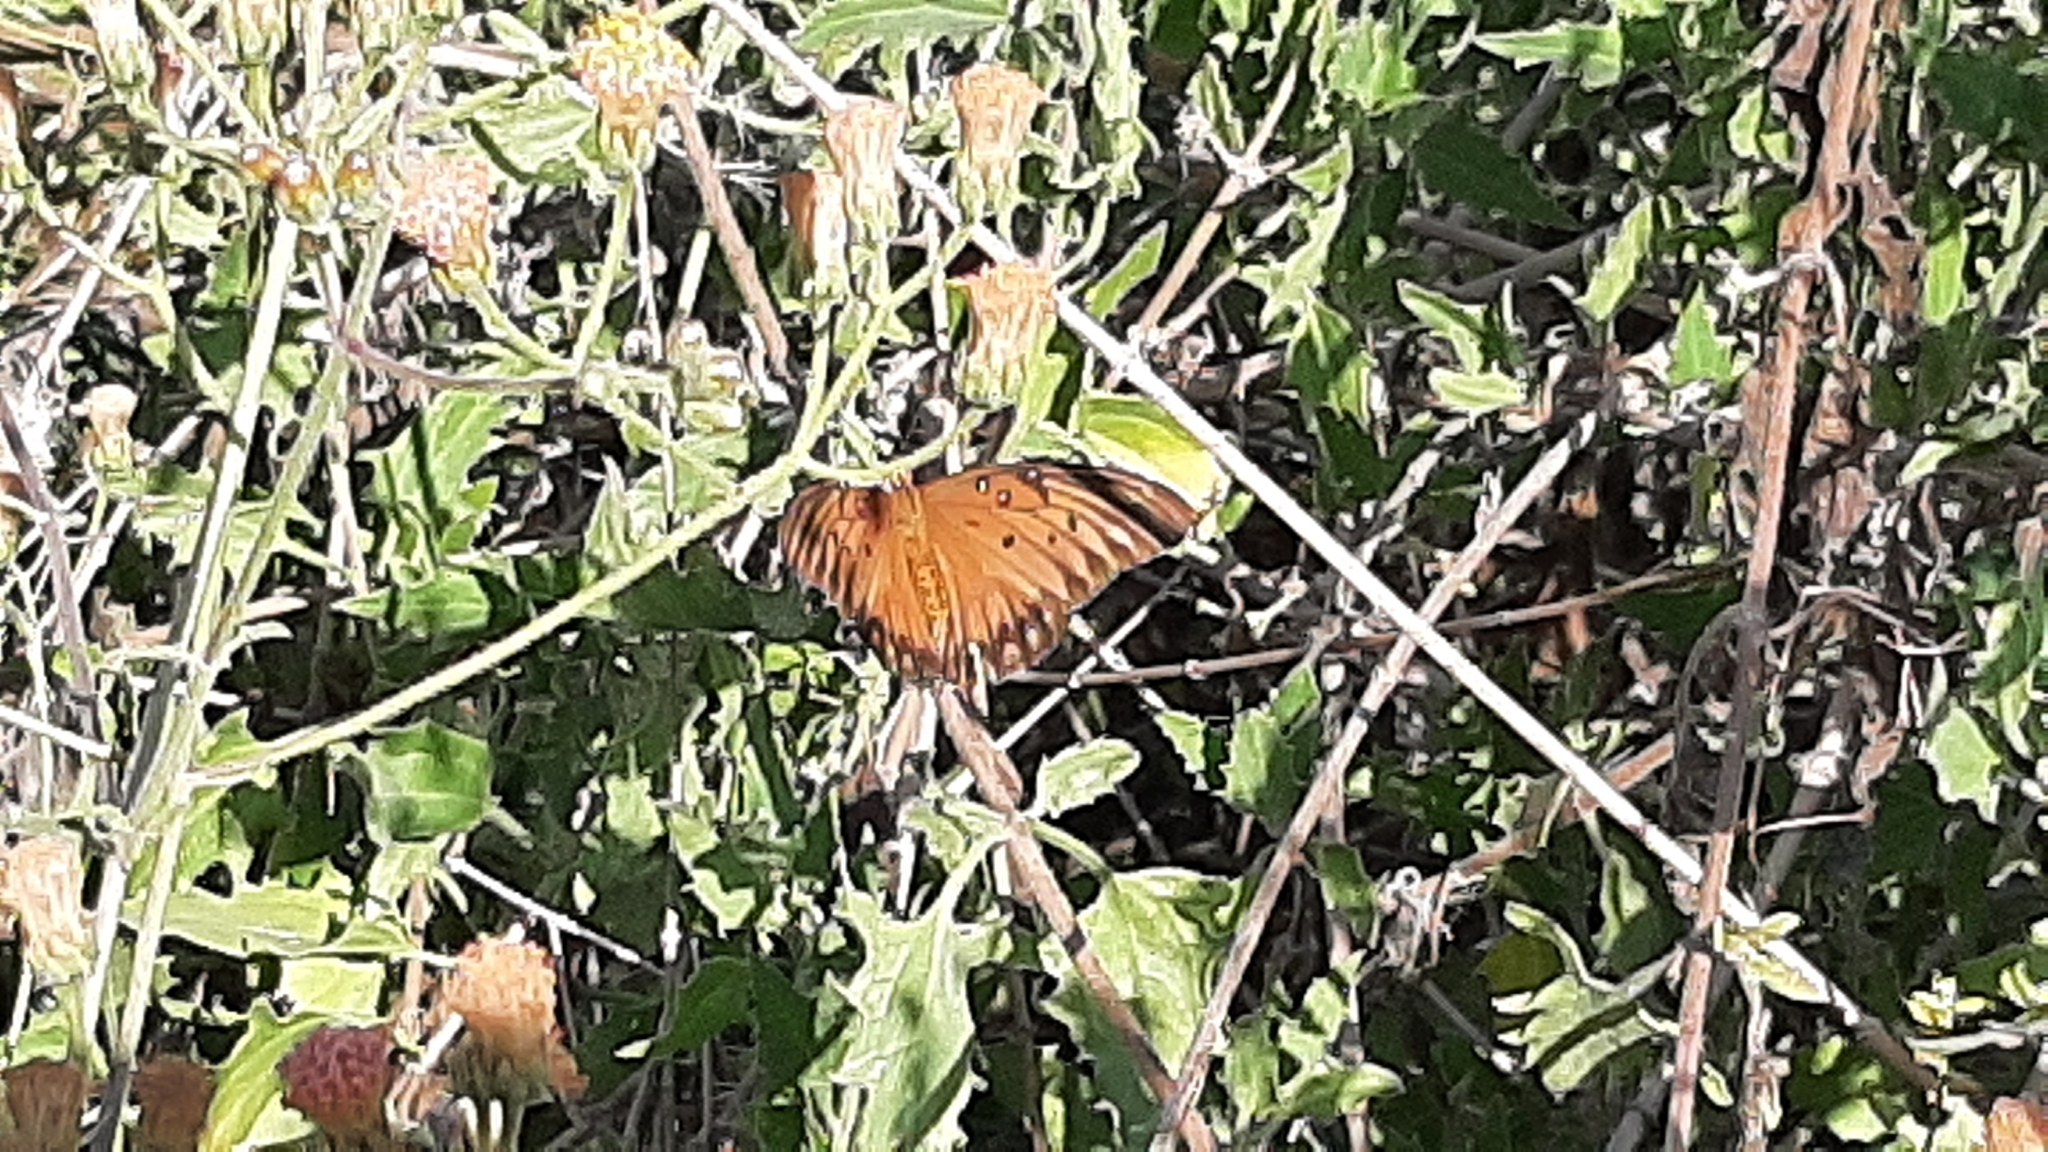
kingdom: Animalia
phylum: Arthropoda
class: Insecta
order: Lepidoptera
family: Nymphalidae
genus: Dione
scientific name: Dione vanillae
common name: Gulf fritillary
